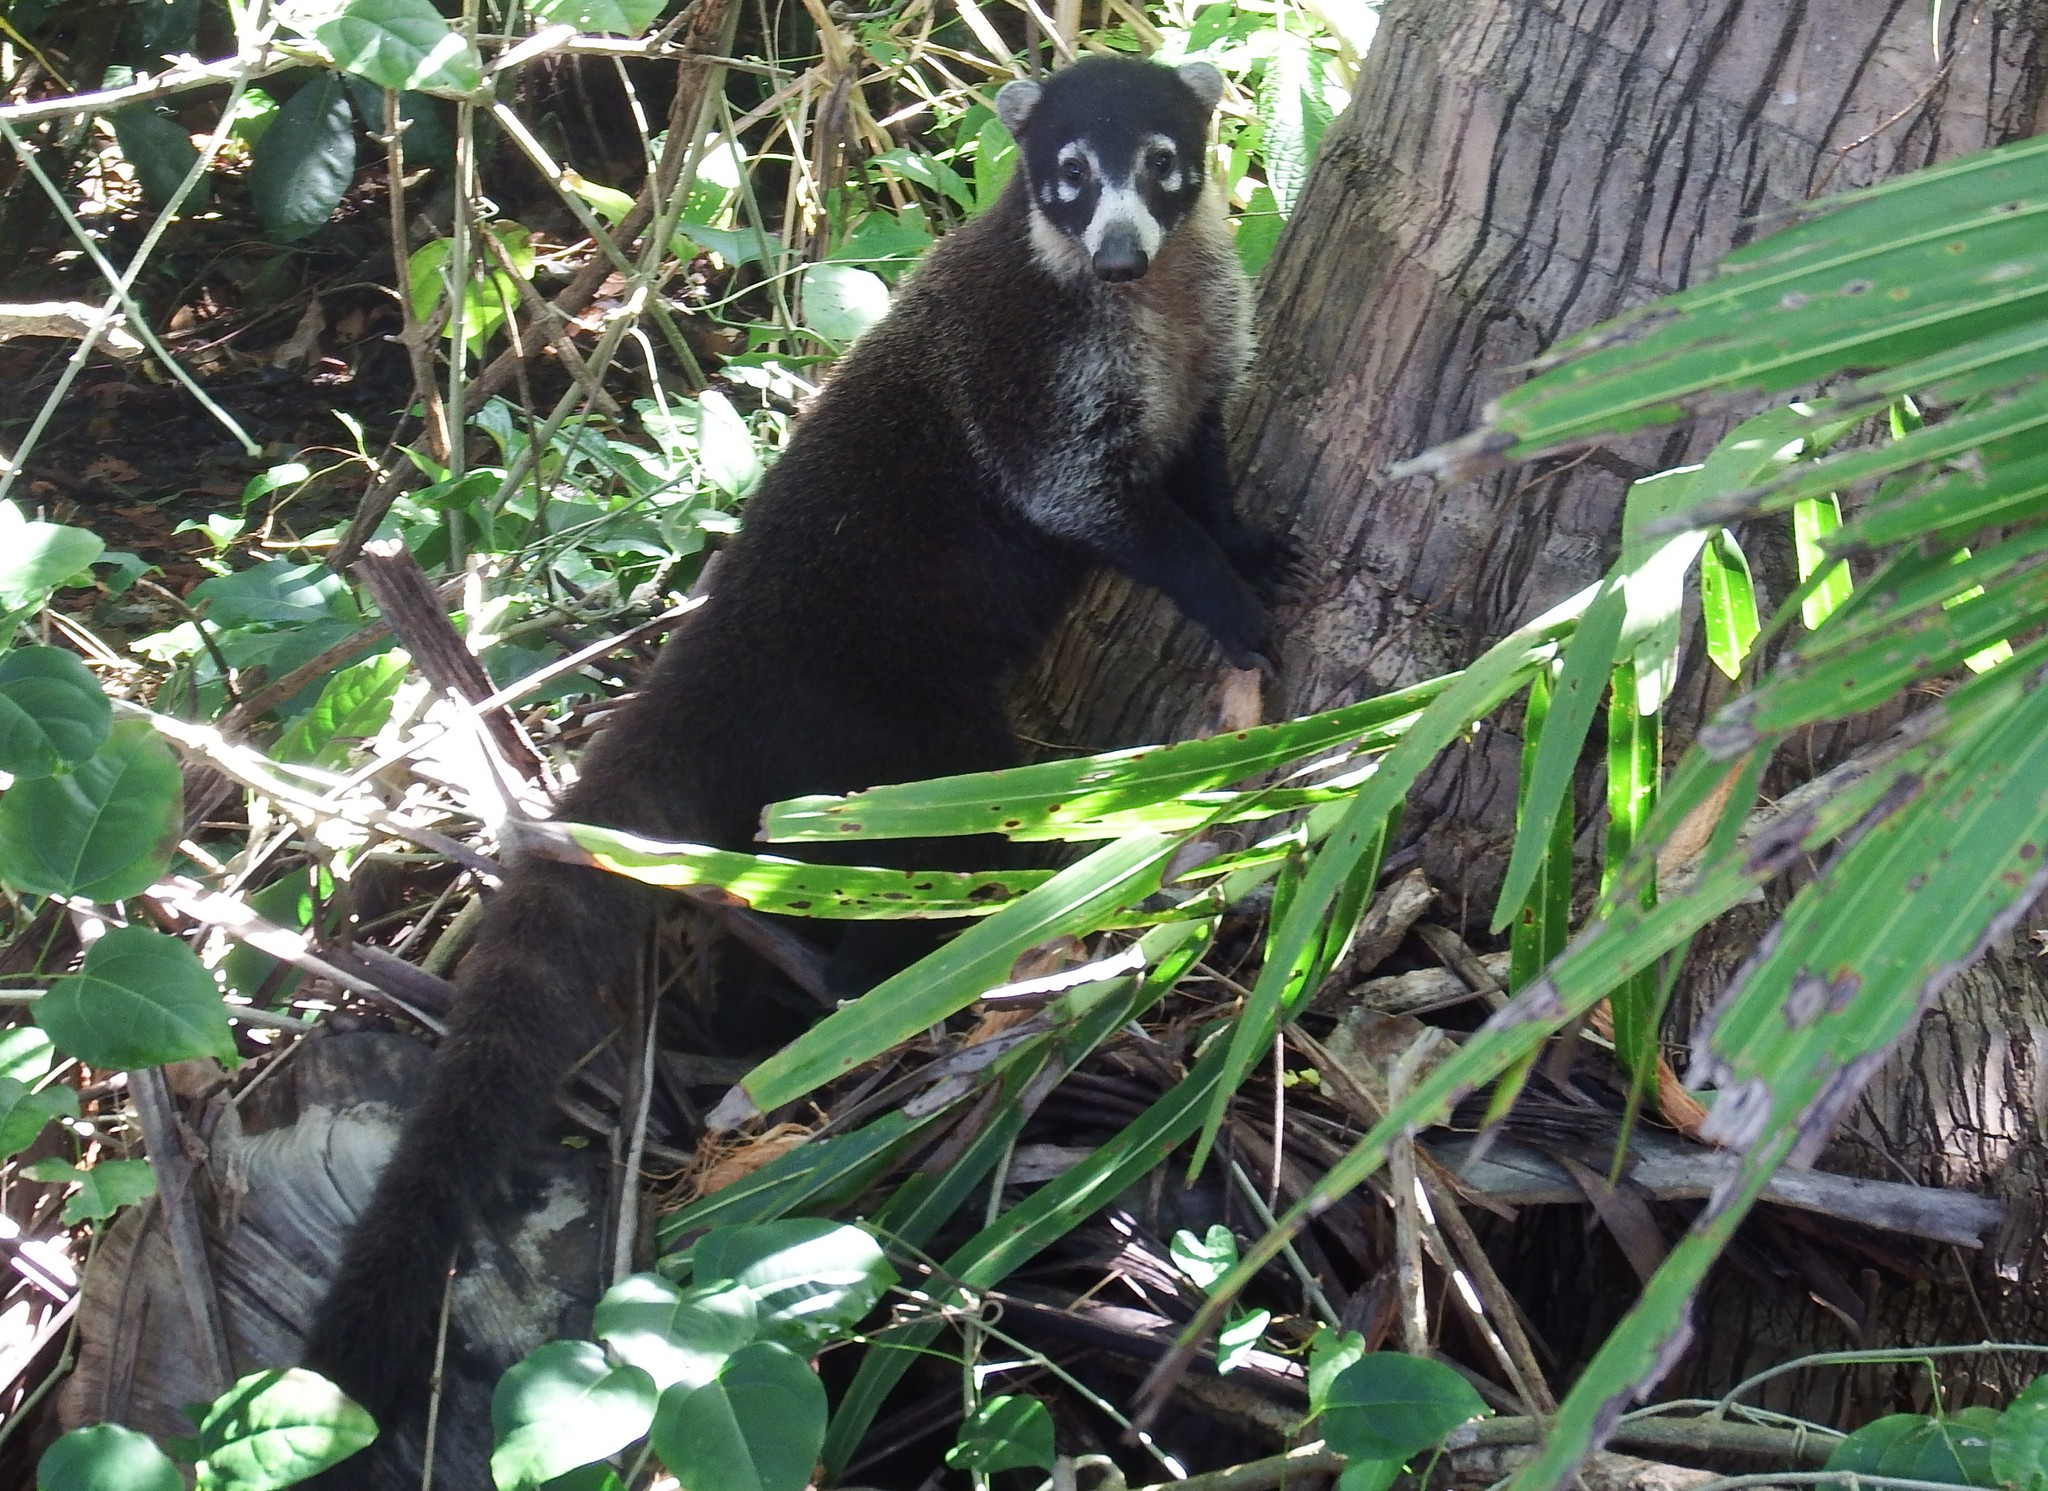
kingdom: Animalia
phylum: Chordata
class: Mammalia
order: Carnivora
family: Procyonidae
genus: Nasua
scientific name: Nasua narica
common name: White-nosed coati
